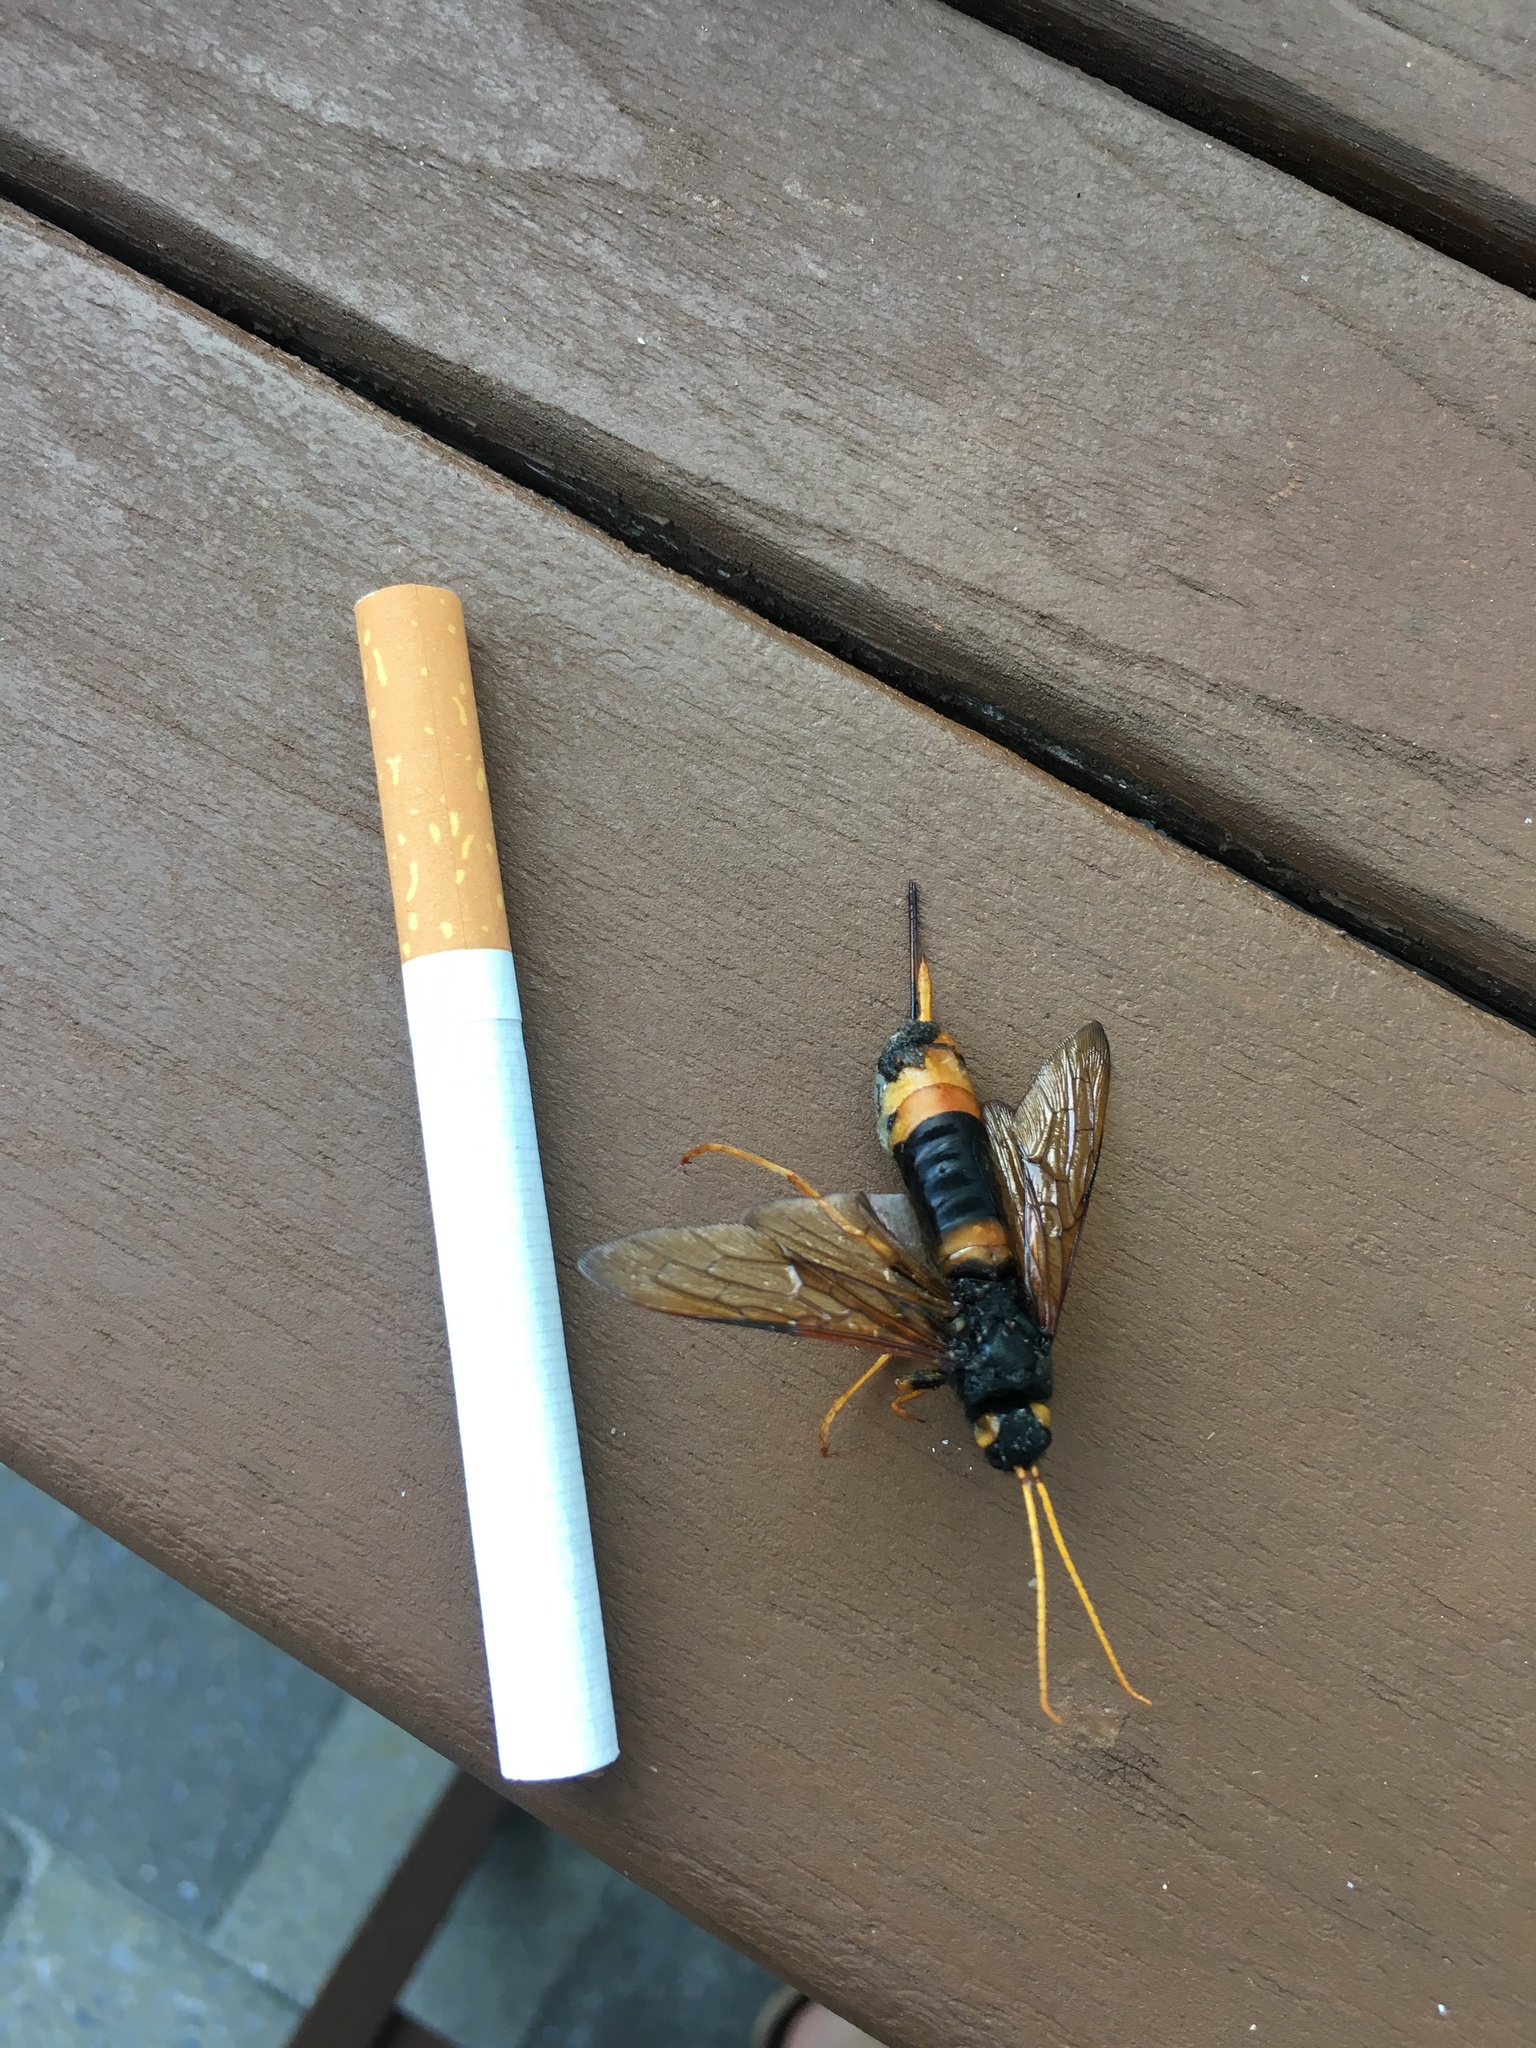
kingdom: Animalia
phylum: Arthropoda
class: Insecta
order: Hymenoptera
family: Siricidae
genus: Urocerus
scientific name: Urocerus gigas
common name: Giant woodwasp
